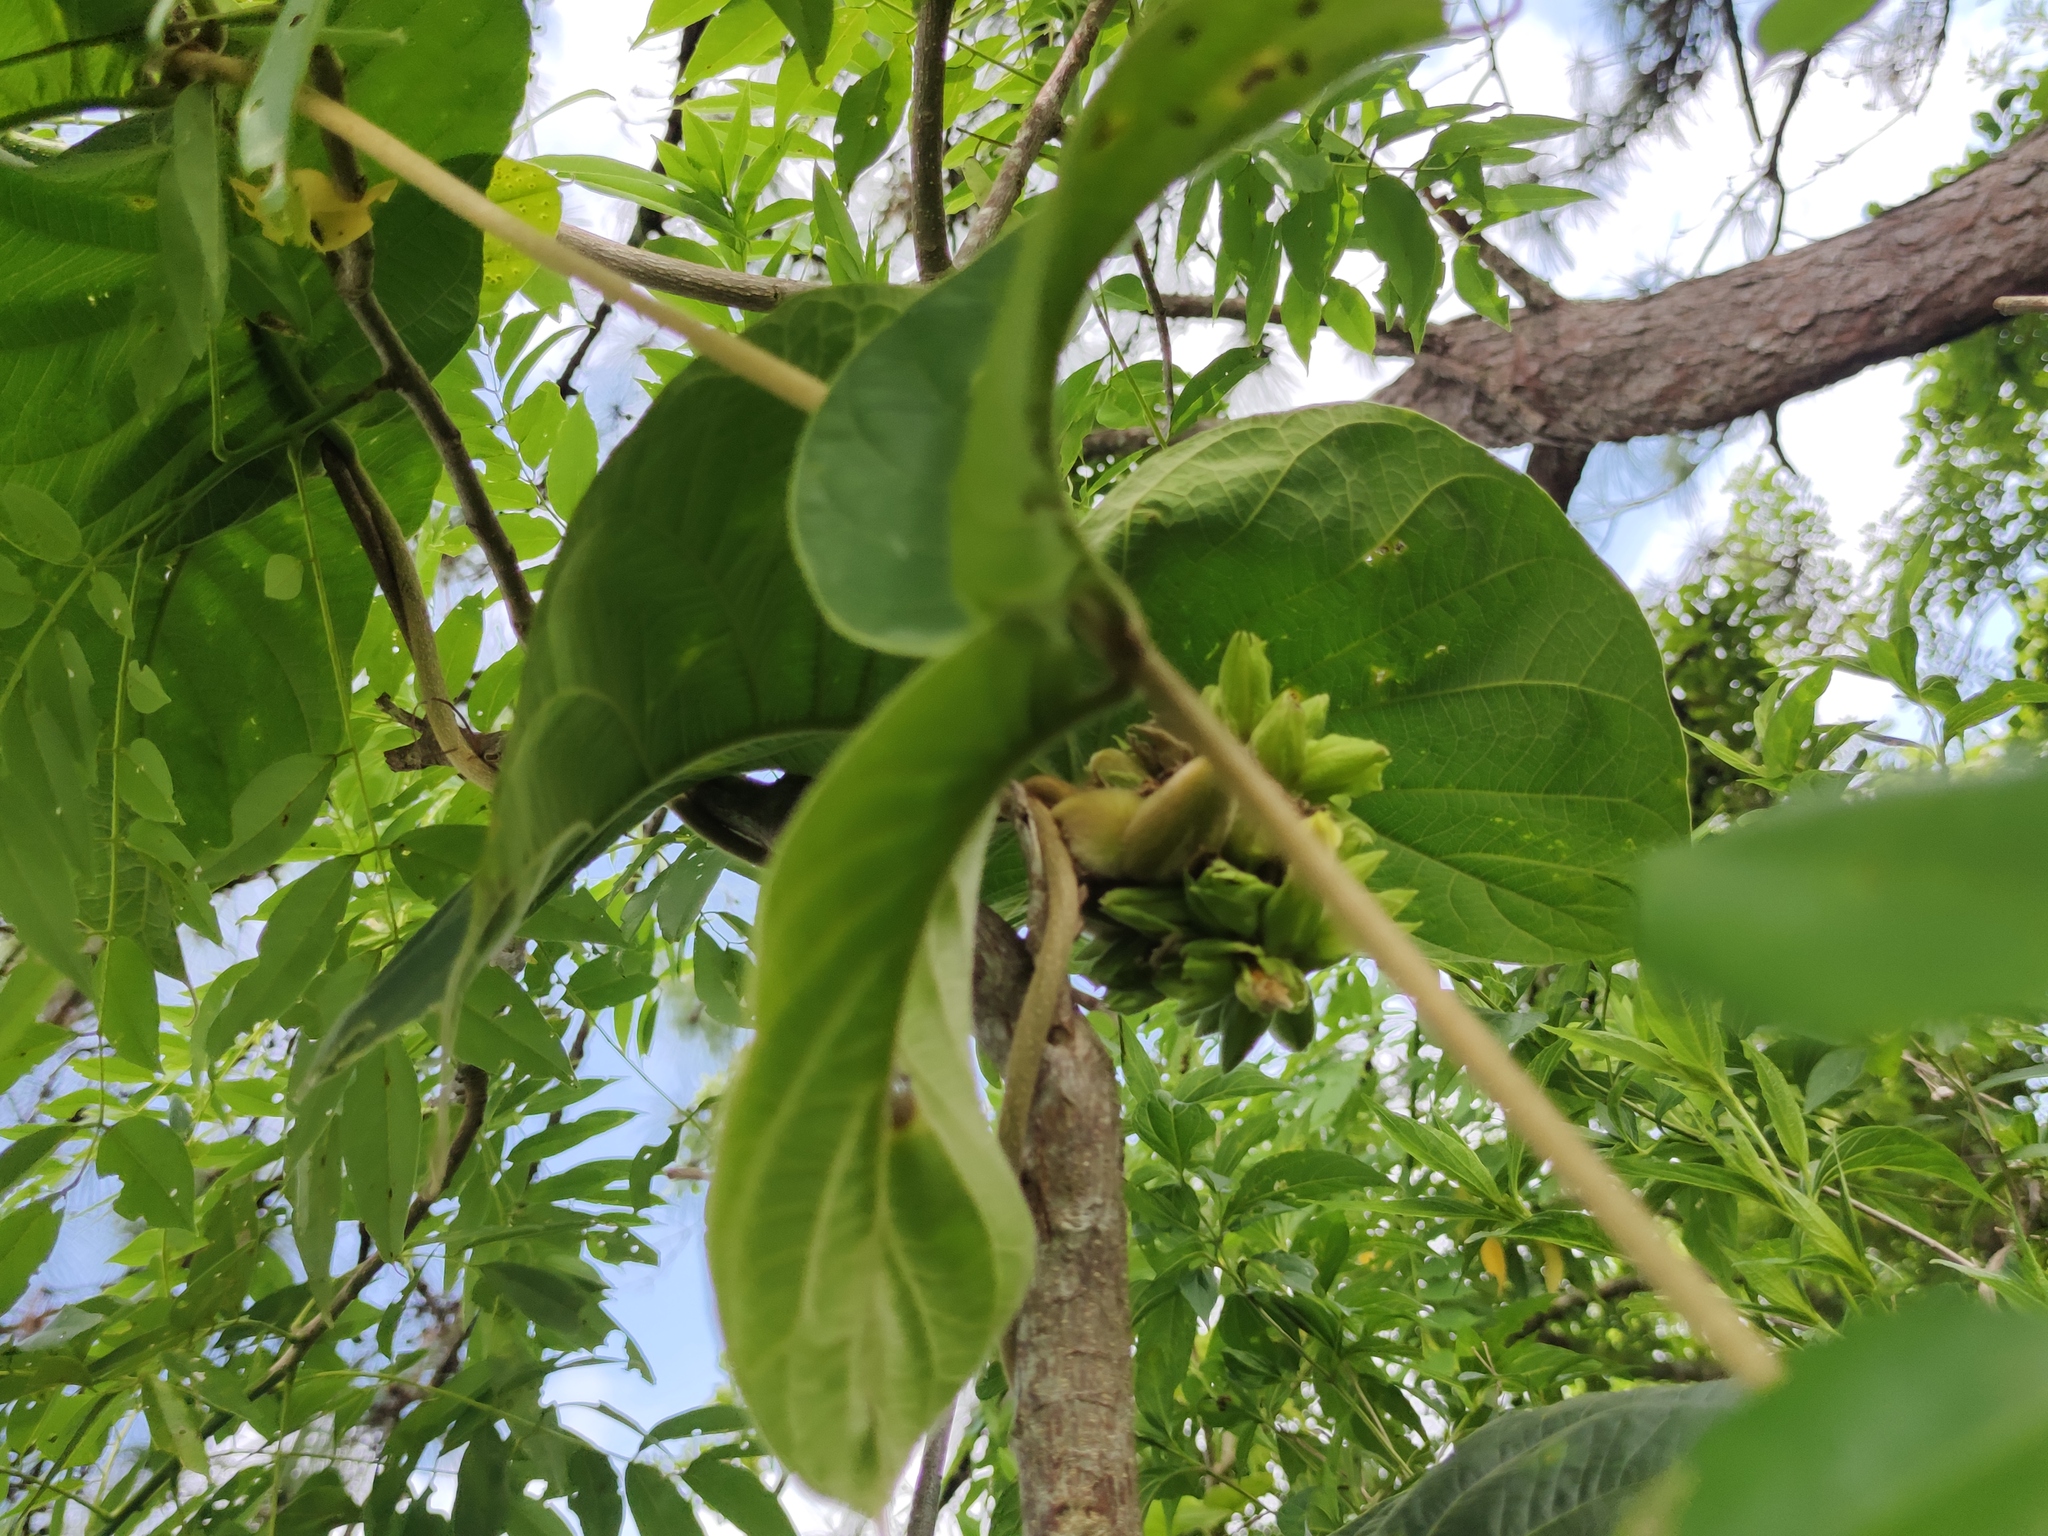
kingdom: Plantae
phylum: Tracheophyta
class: Magnoliopsida
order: Gentianales
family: Apocynaceae
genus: Prestonia
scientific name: Prestonia mexicana
